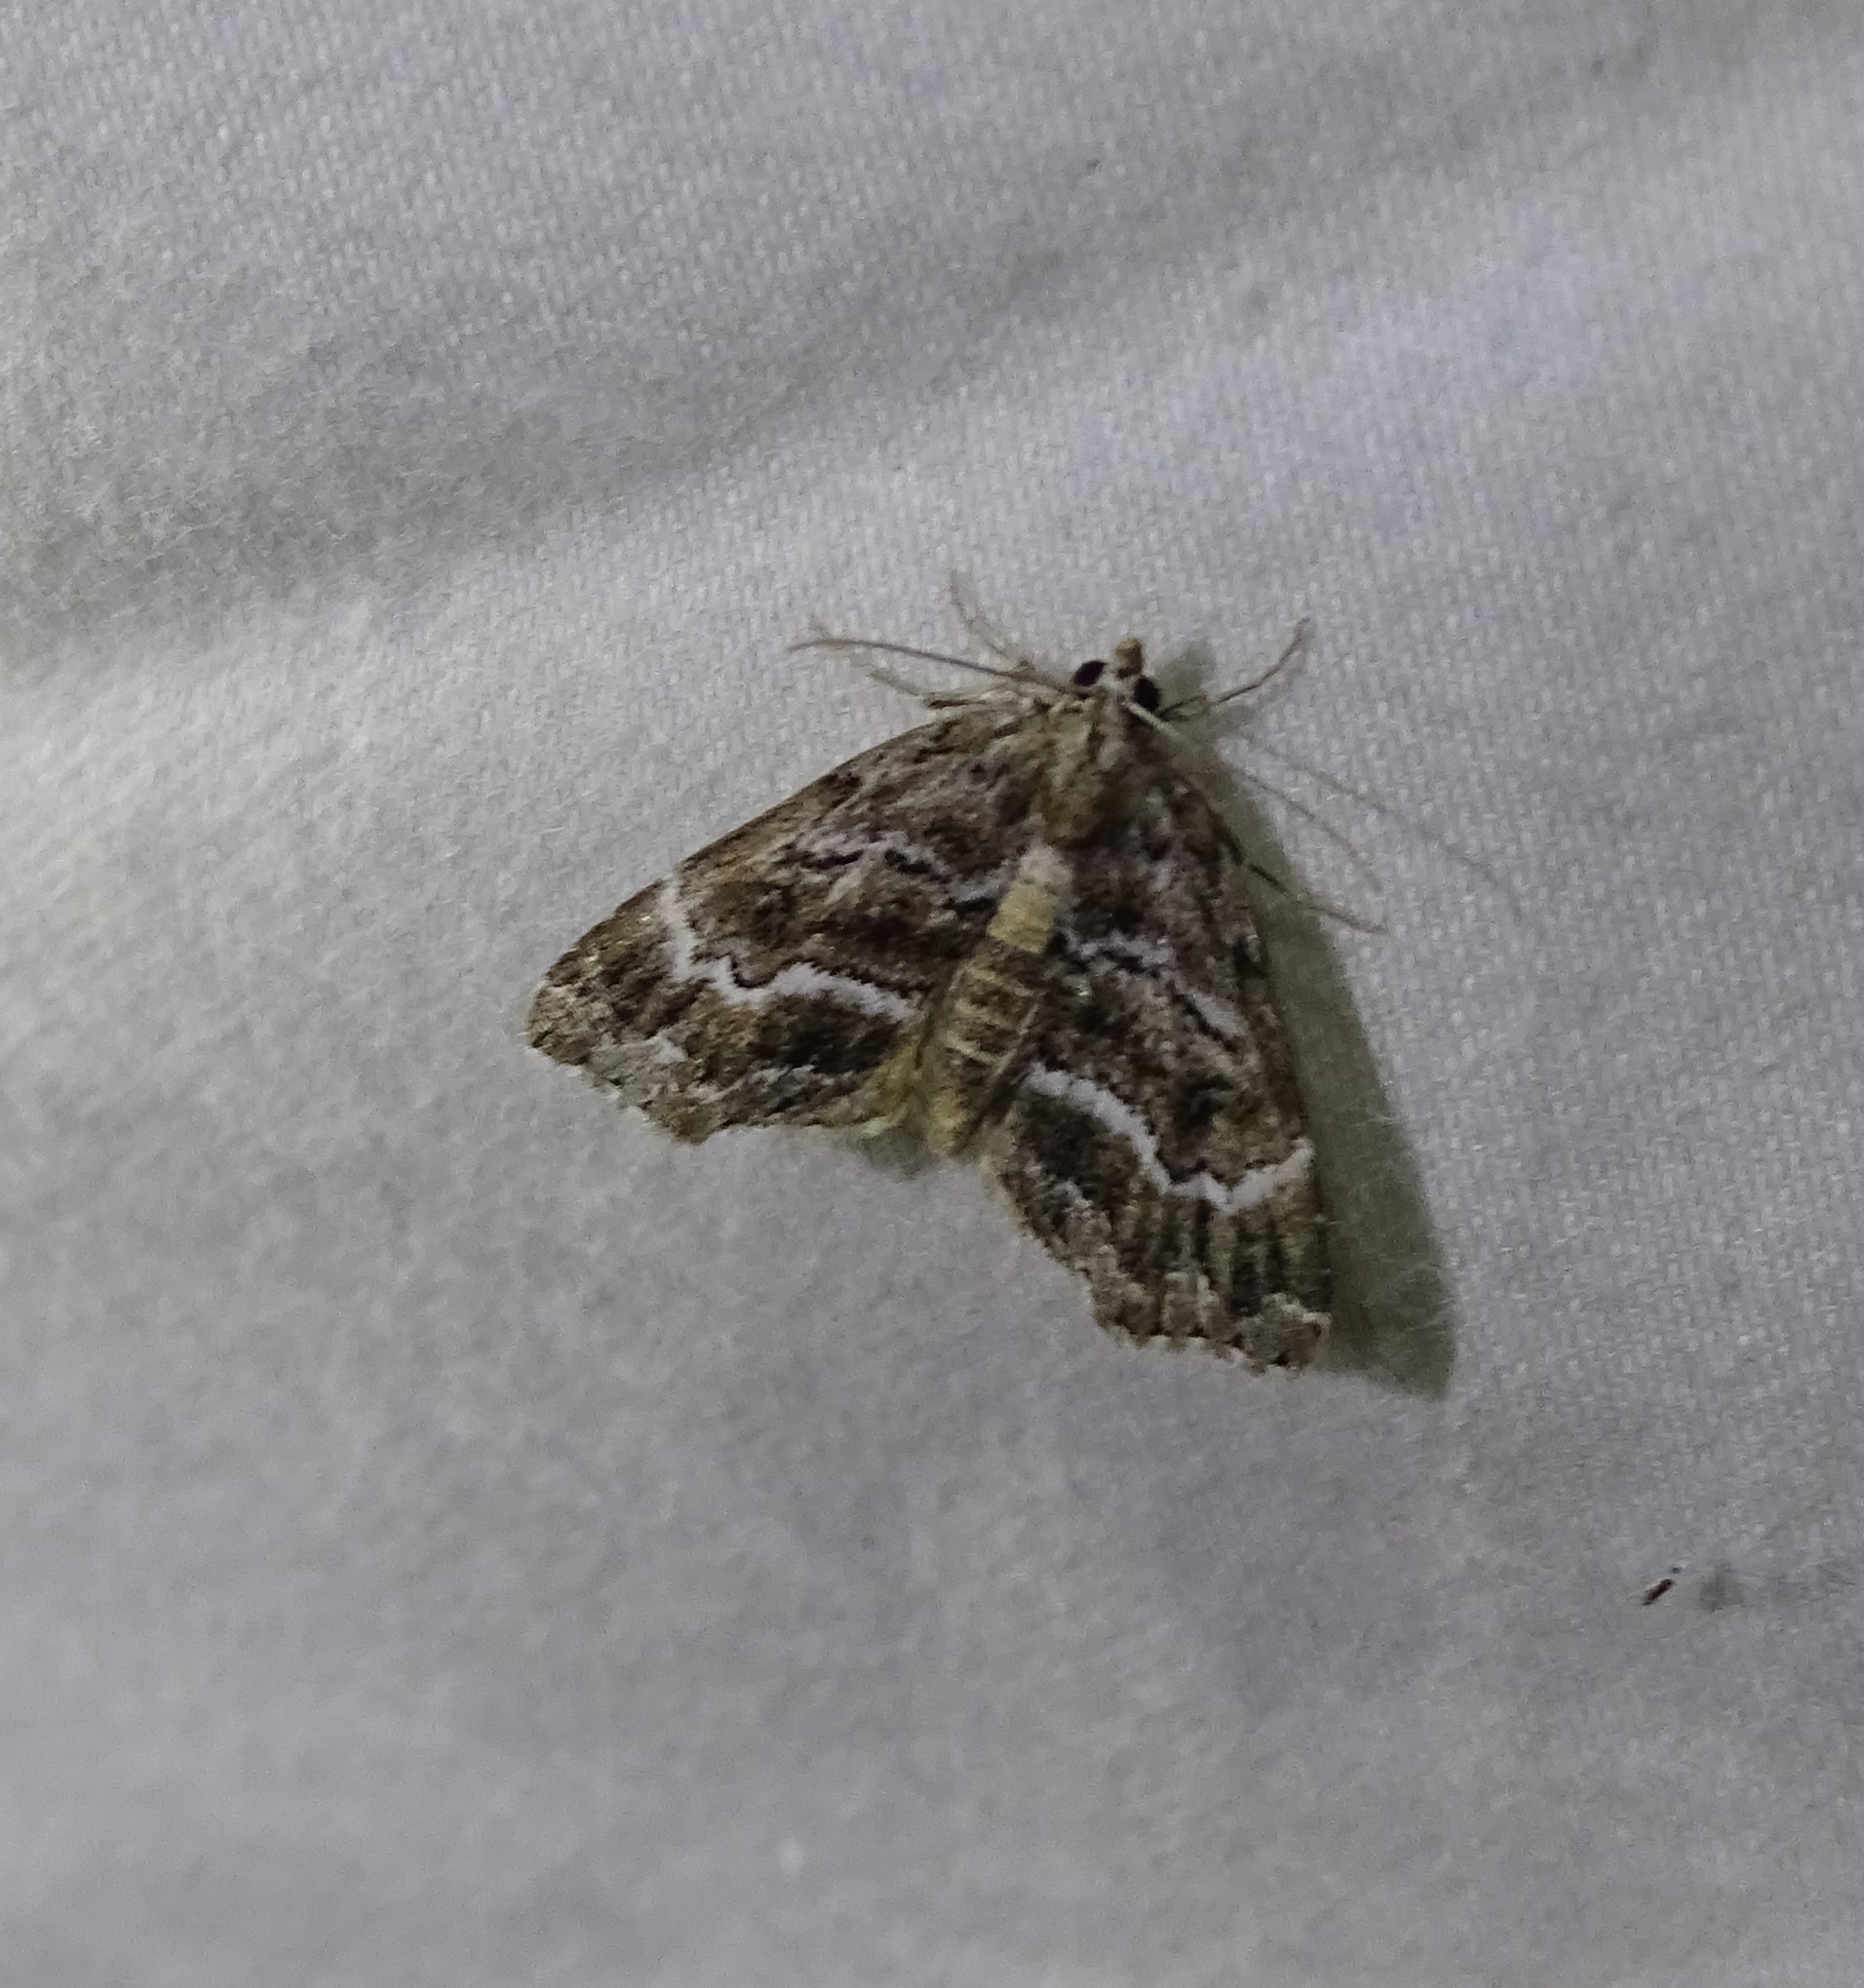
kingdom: Animalia
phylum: Arthropoda
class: Insecta
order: Lepidoptera
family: Erebidae
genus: Cutina
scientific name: Cutina arcuata
